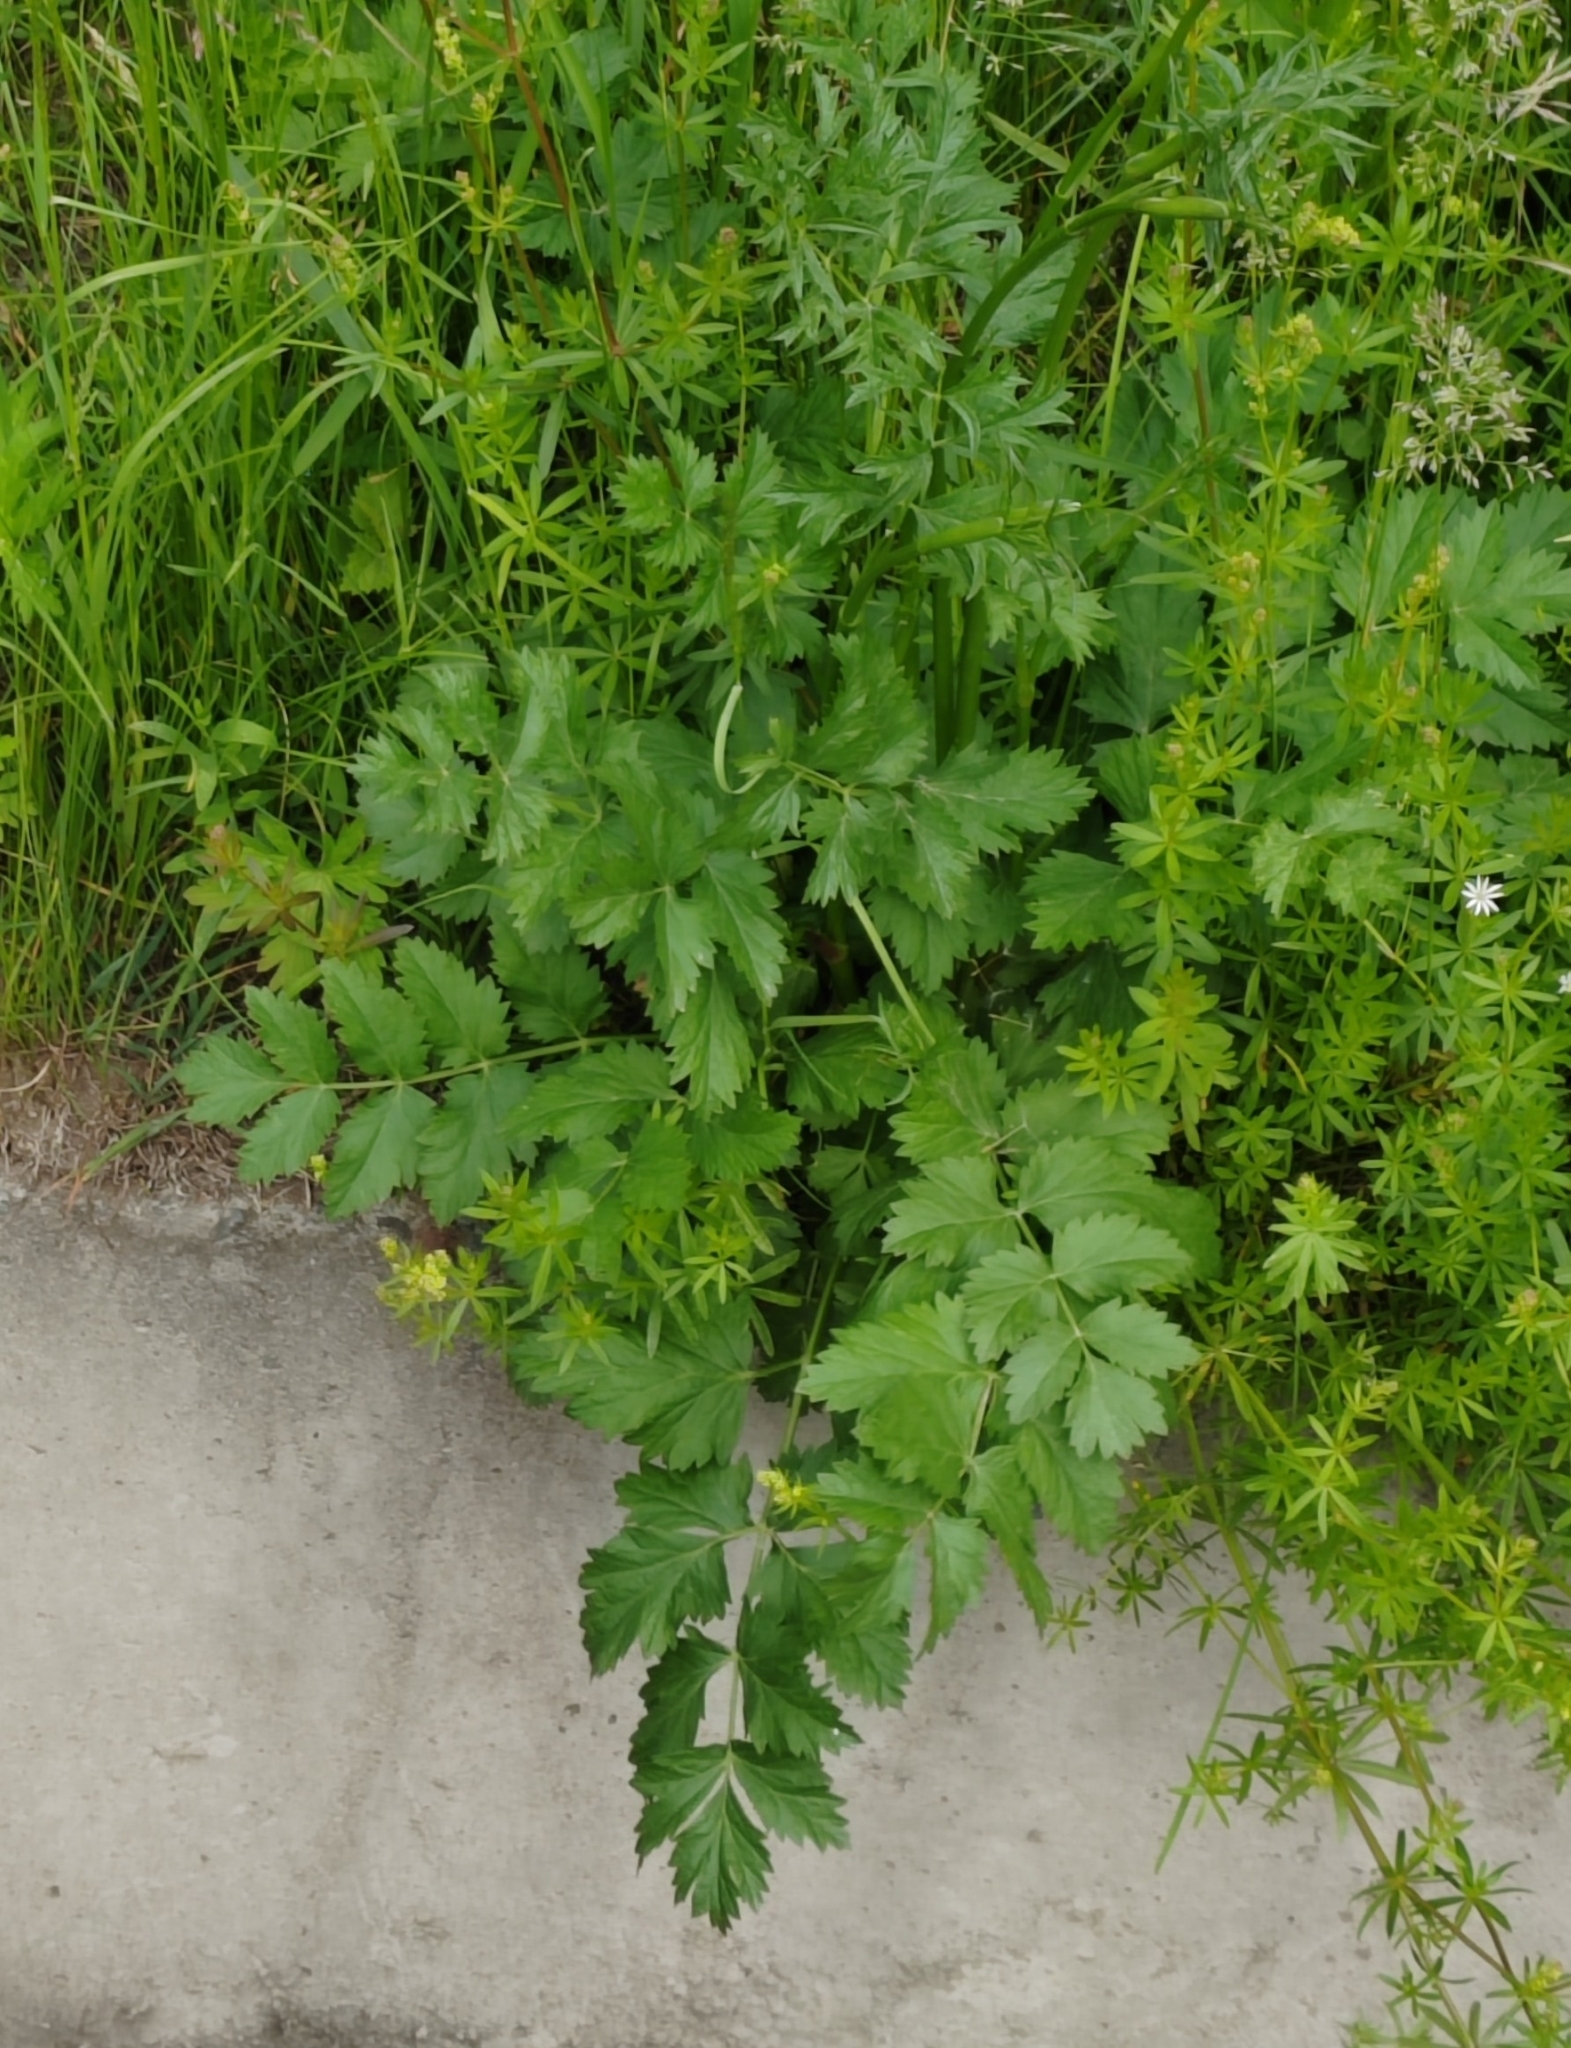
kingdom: Plantae
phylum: Tracheophyta
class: Magnoliopsida
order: Apiales
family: Apiaceae
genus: Pastinaca
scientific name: Pastinaca sativa
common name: Wild parsnip
